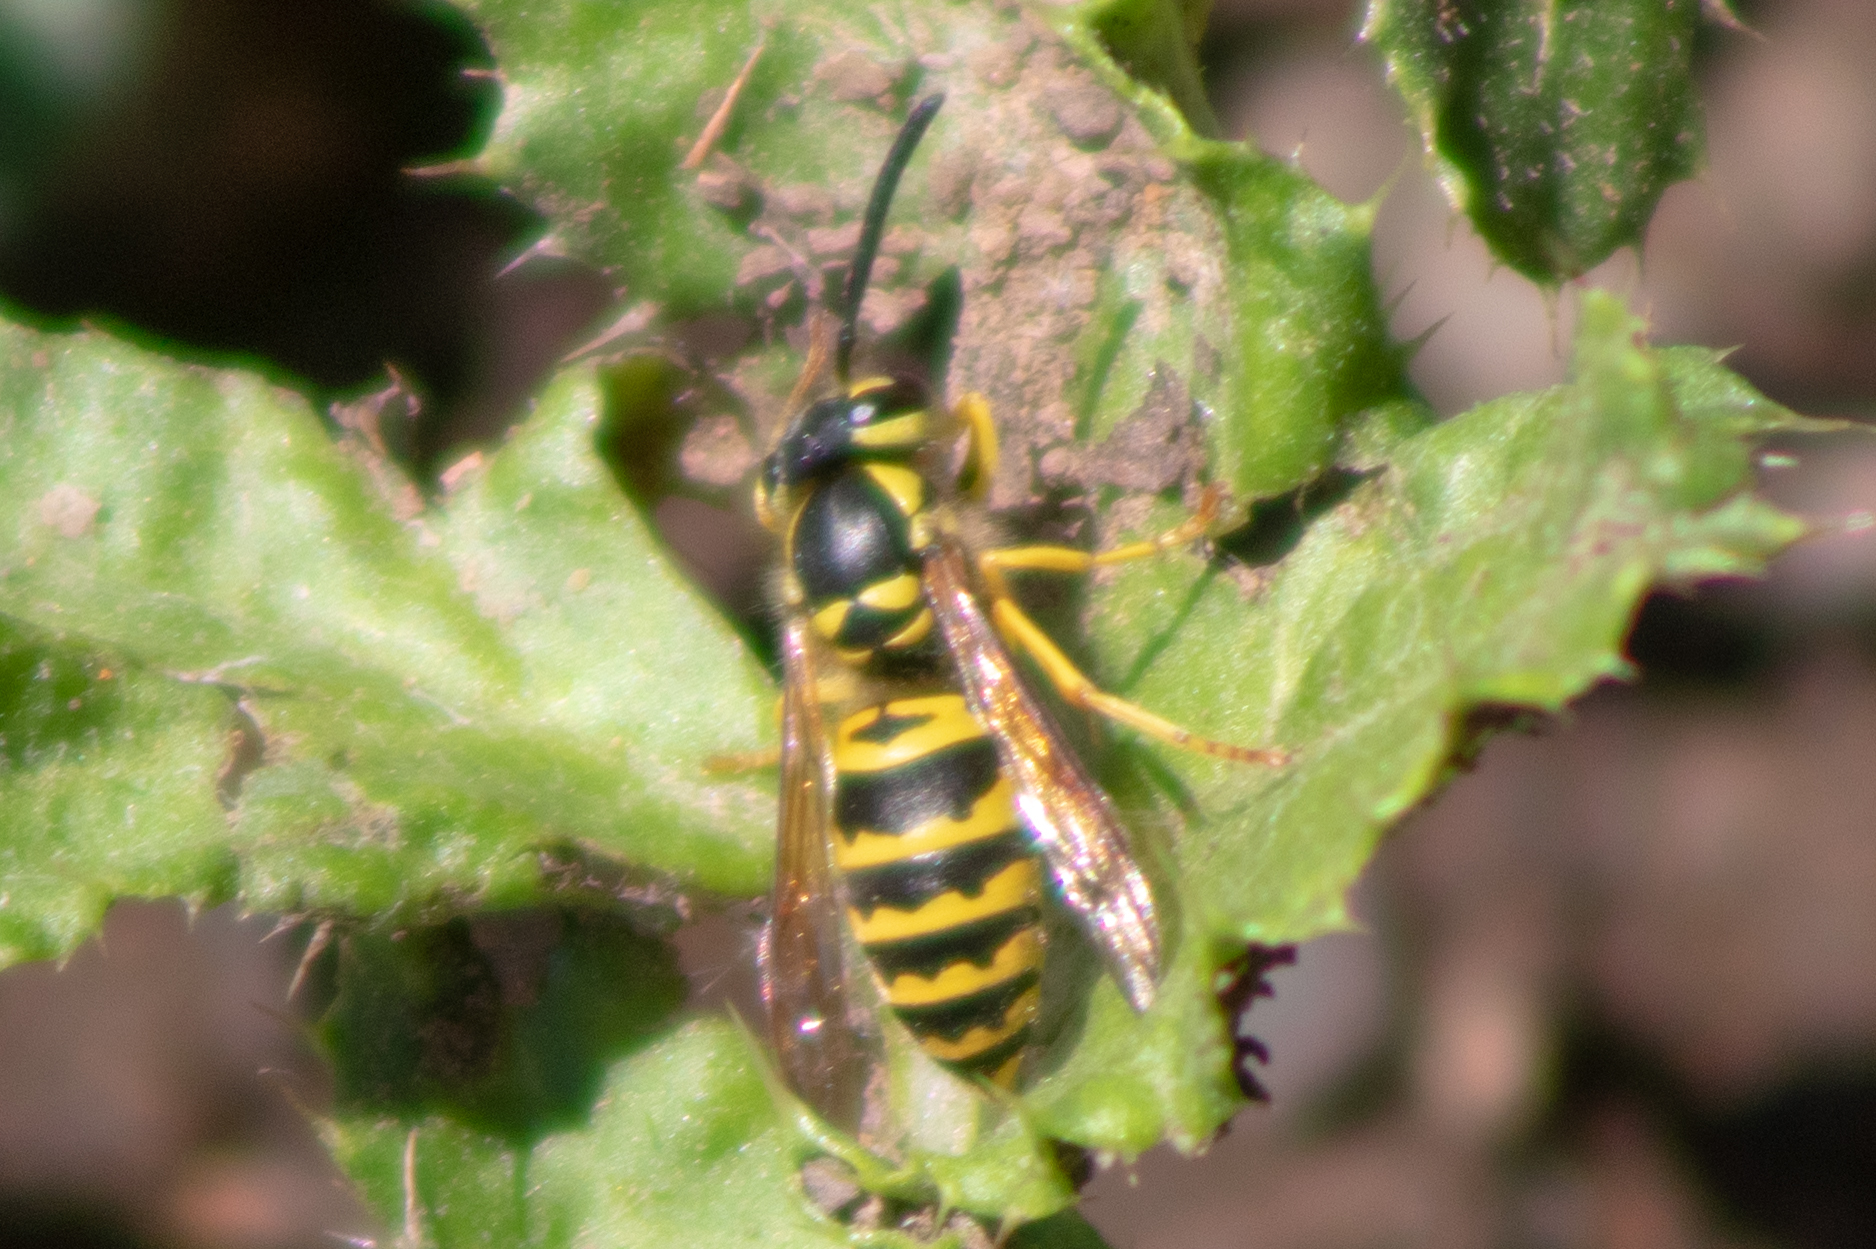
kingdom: Animalia
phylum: Arthropoda
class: Insecta
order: Hymenoptera
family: Vespidae
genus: Vespula
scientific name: Vespula maculifrons
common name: Eastern yellowjacket
